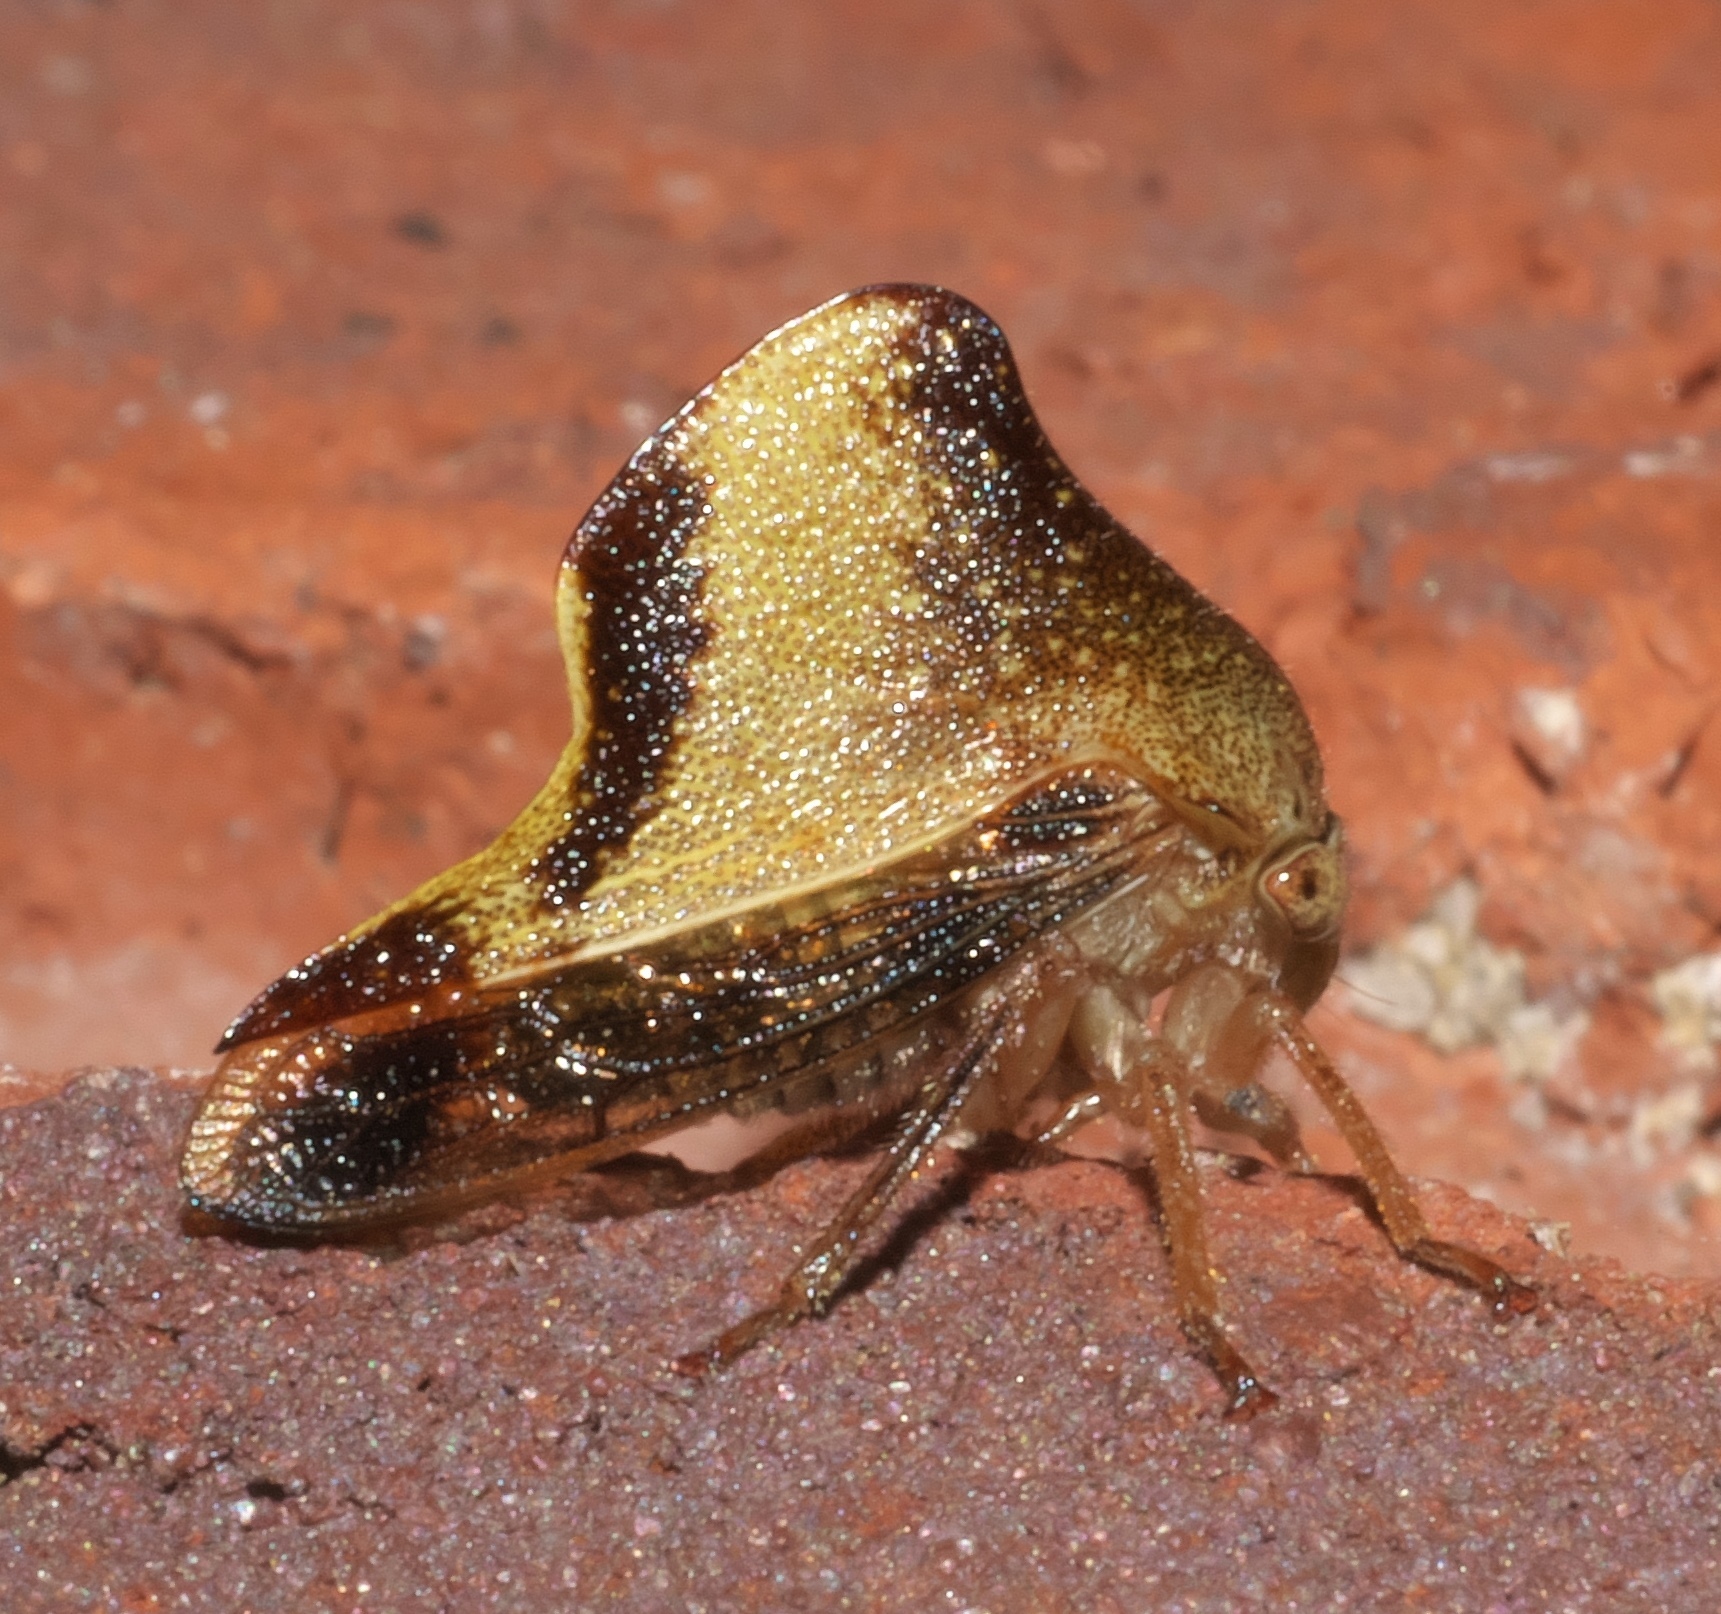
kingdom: Animalia
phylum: Arthropoda
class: Insecta
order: Hemiptera
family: Membracidae
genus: Helonica
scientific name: Helonica excelsa
